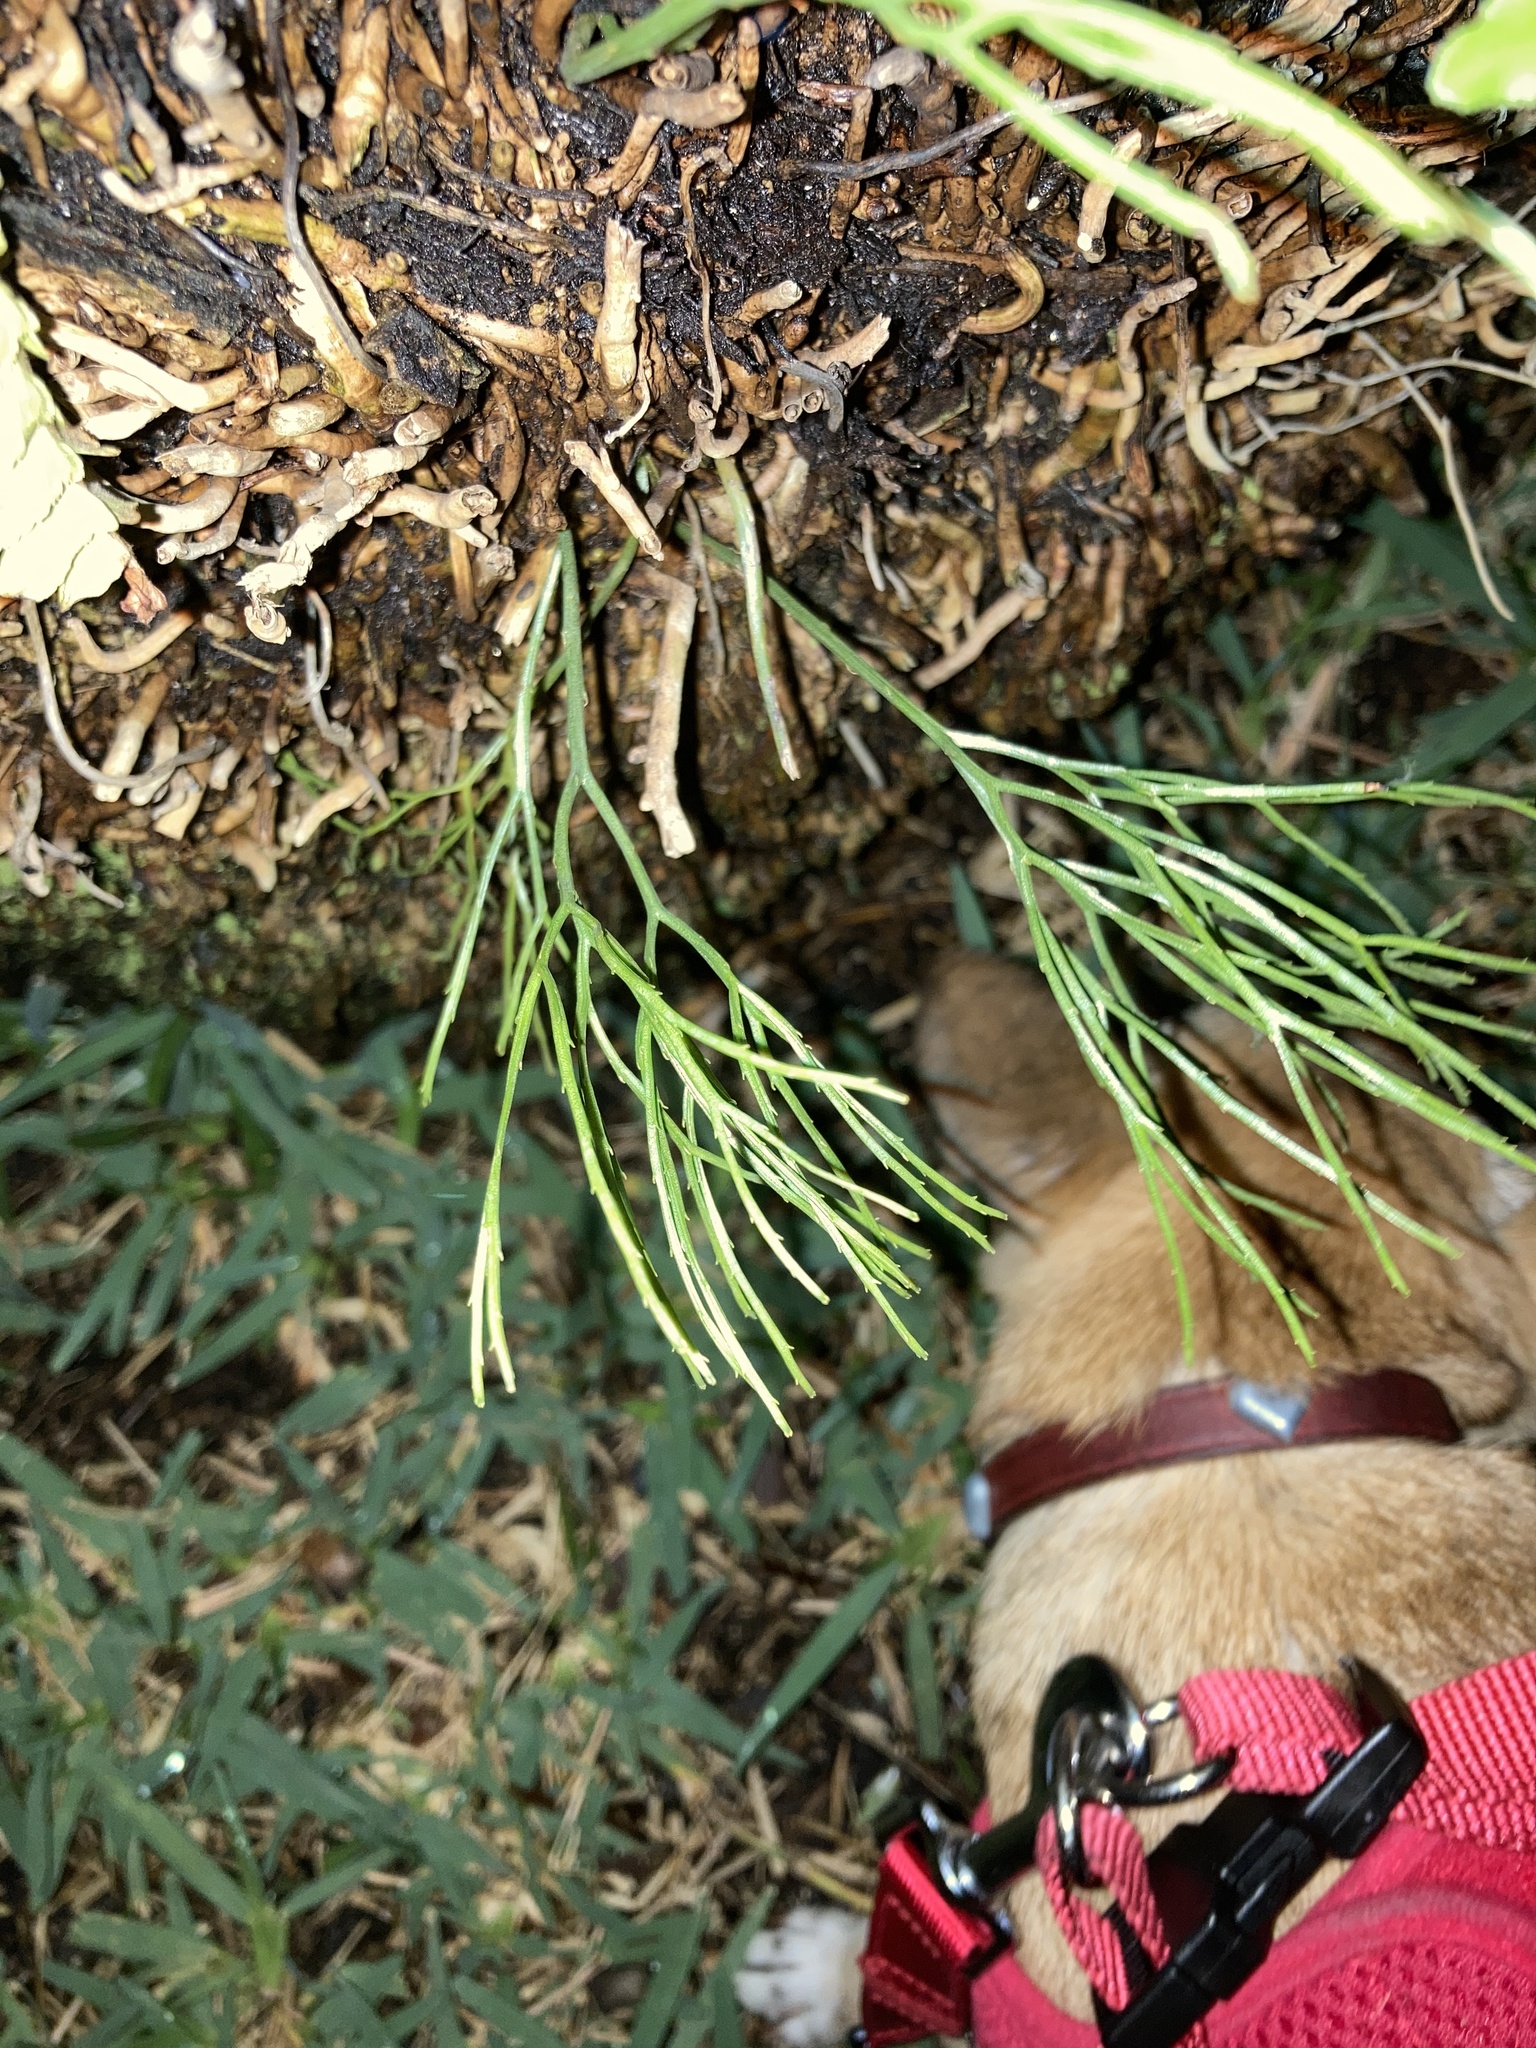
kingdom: Plantae
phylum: Tracheophyta
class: Polypodiopsida
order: Psilotales
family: Psilotaceae
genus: Psilotum
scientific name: Psilotum nudum
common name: Skeleton fork fern
